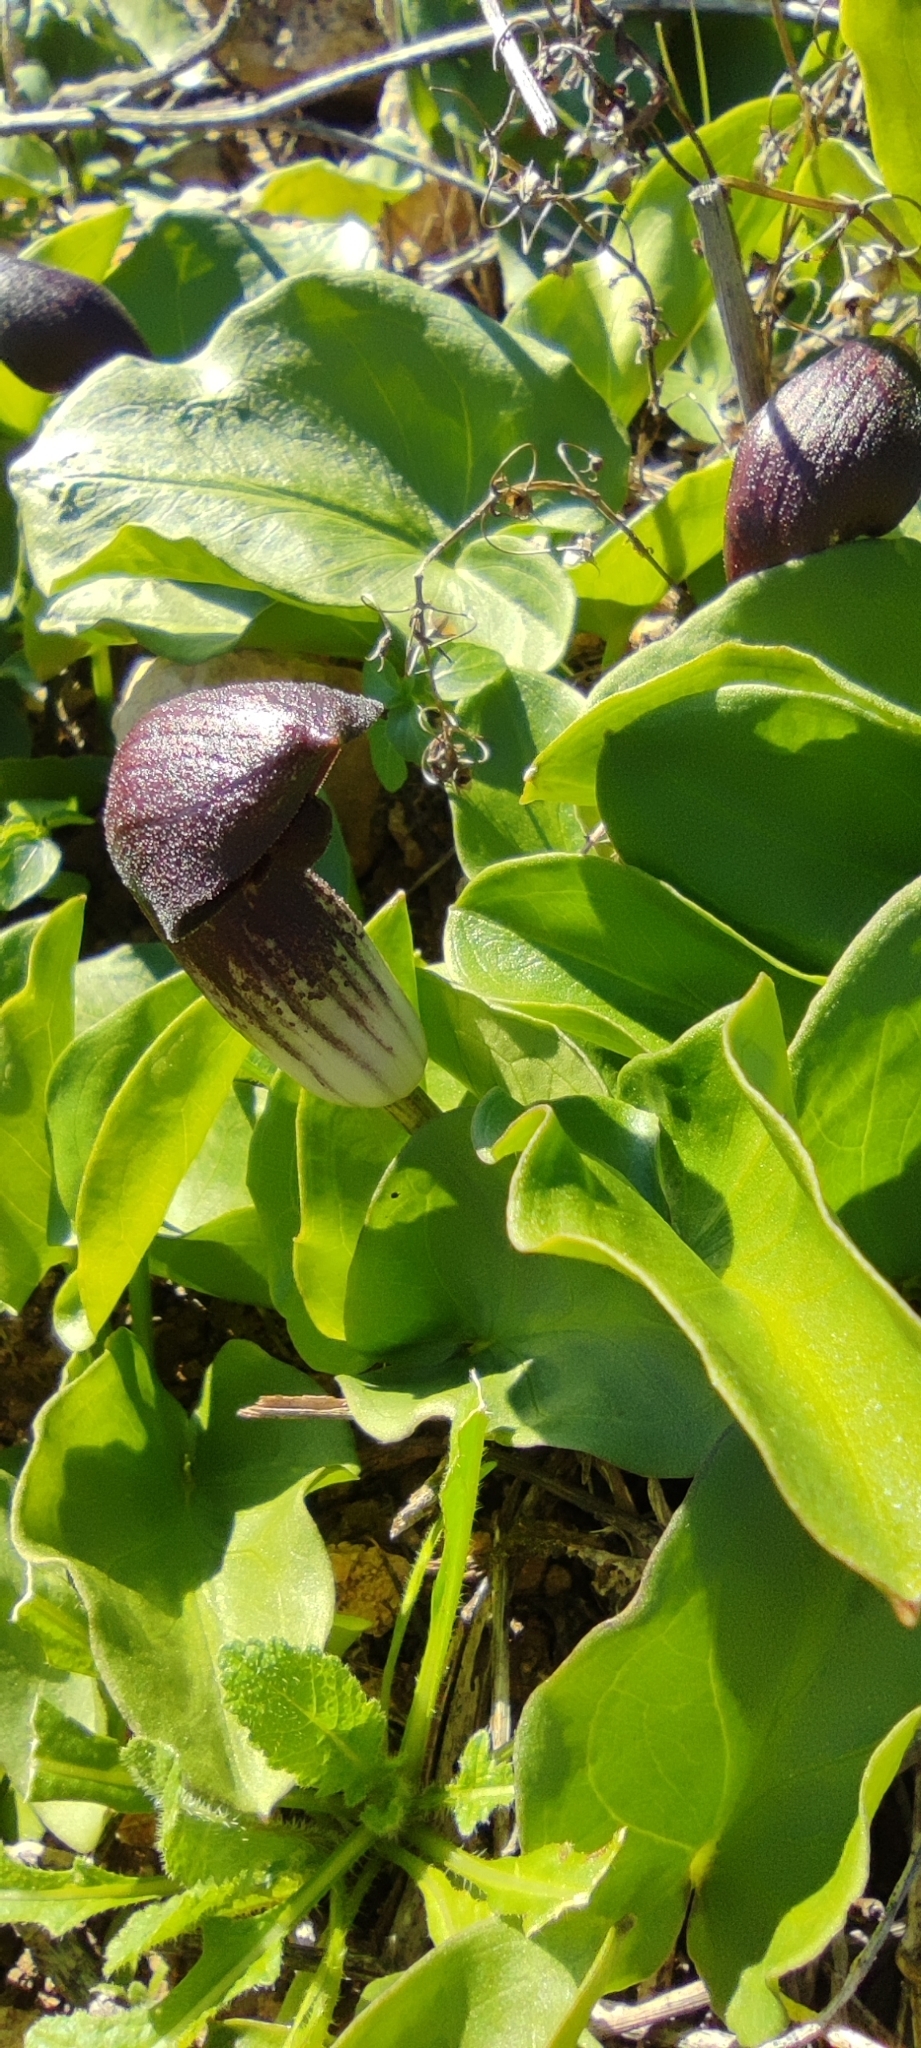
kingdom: Plantae
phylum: Tracheophyta
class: Liliopsida
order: Alismatales
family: Araceae
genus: Arisarum
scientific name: Arisarum simorrhinum
